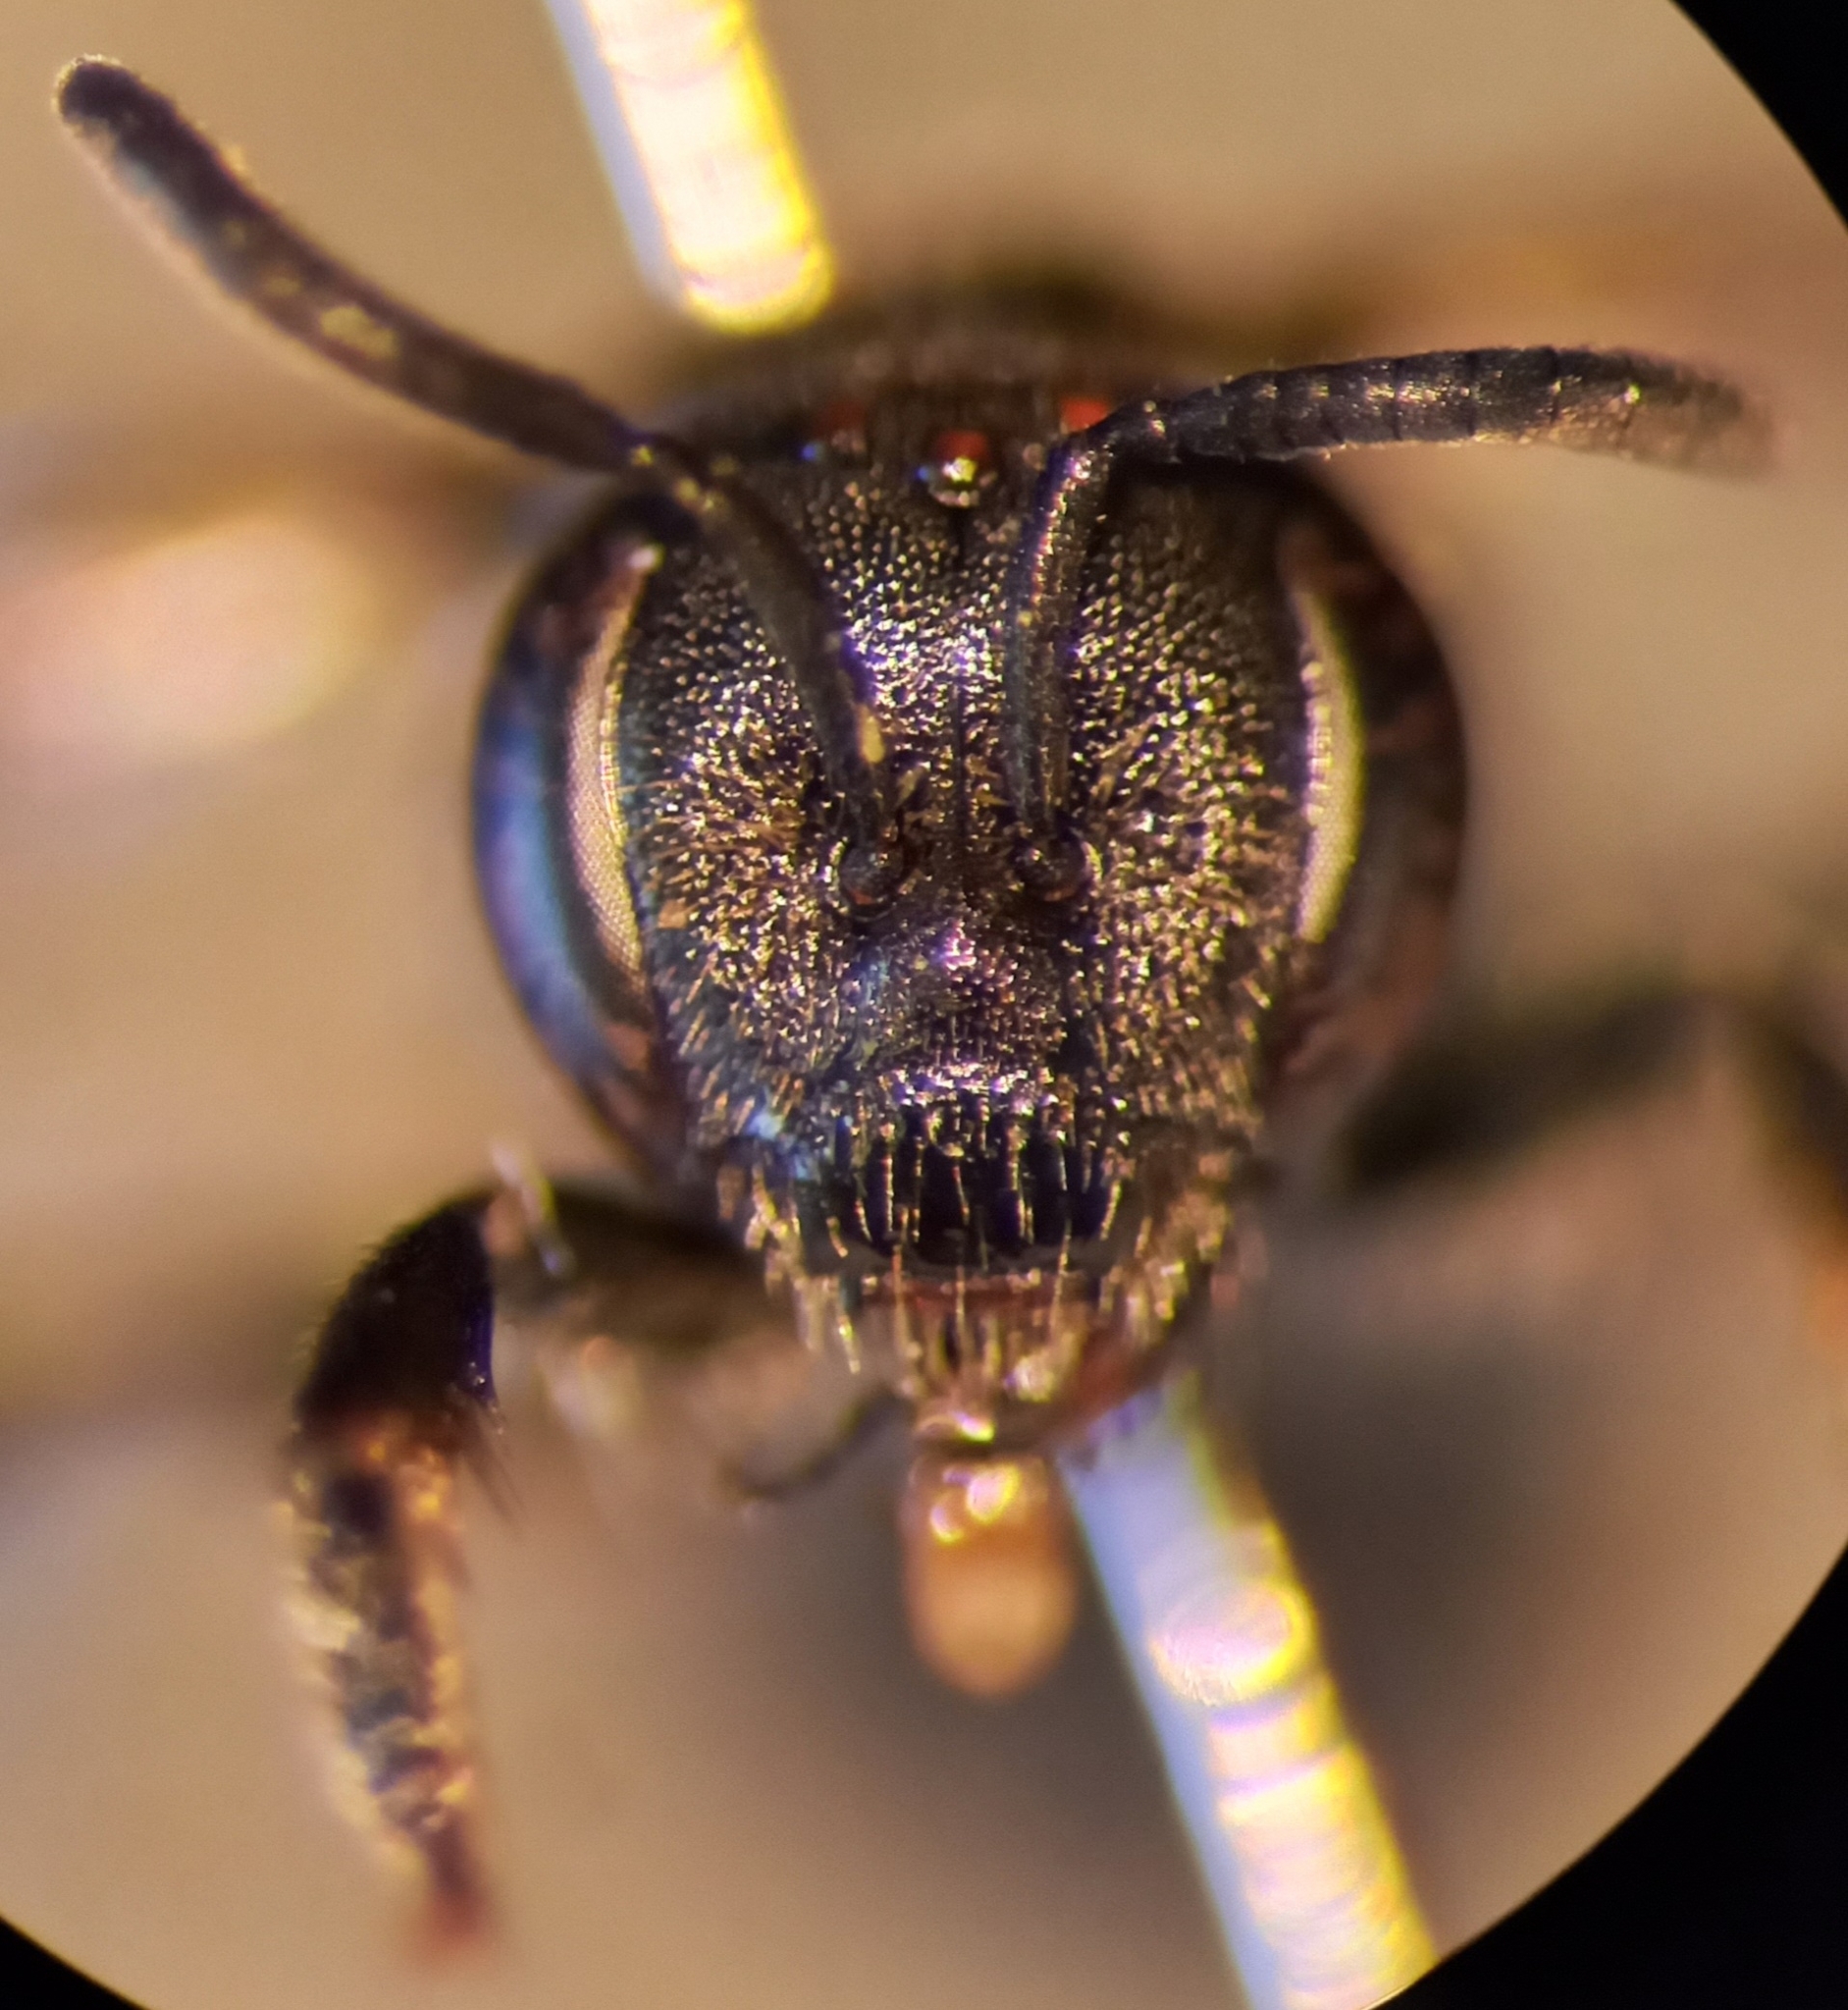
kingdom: Animalia
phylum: Arthropoda
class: Insecta
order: Hymenoptera
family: Halictidae
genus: Lasioglossum
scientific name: Lasioglossum interruptum
